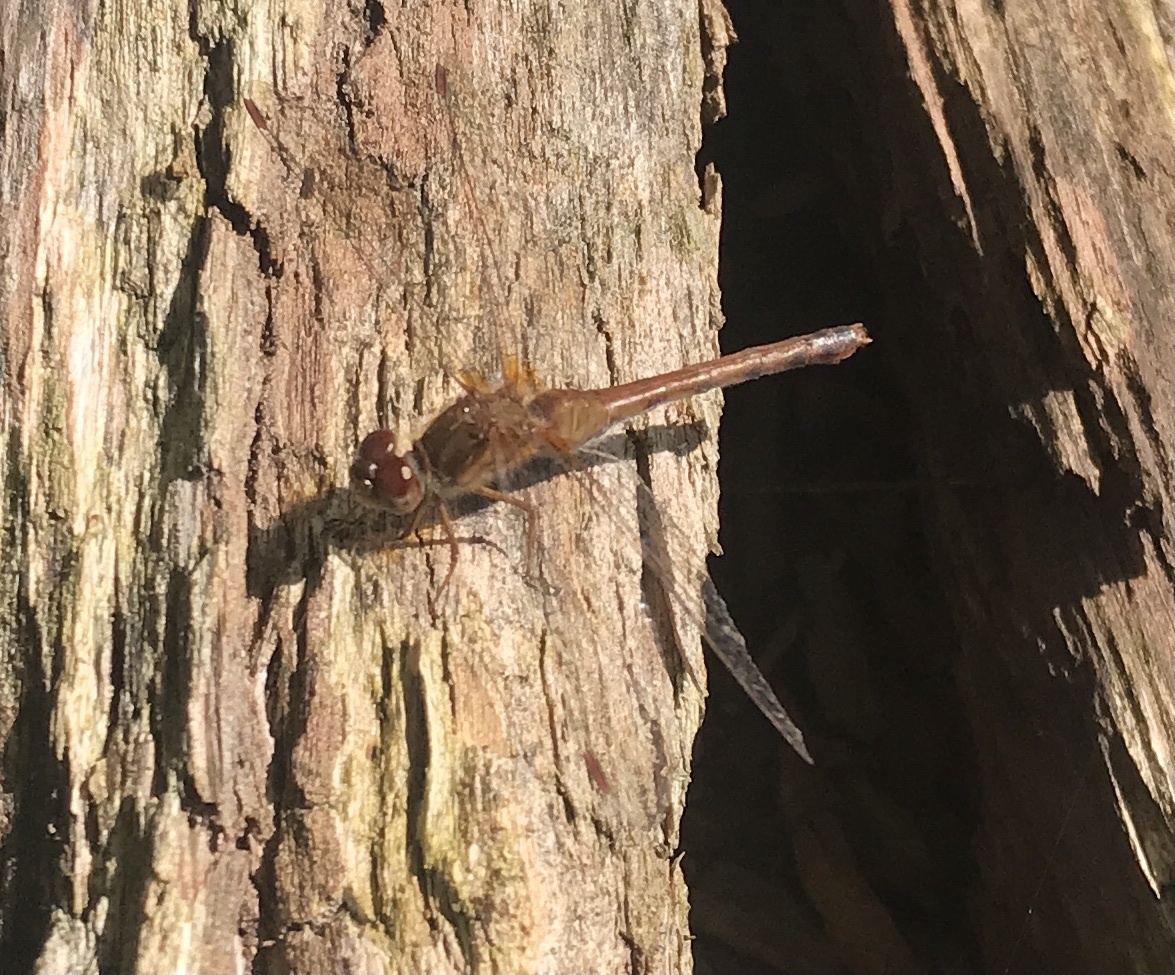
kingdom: Animalia
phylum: Arthropoda
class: Insecta
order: Odonata
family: Libellulidae
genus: Sympetrum
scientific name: Sympetrum vicinum
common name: Autumn meadowhawk
